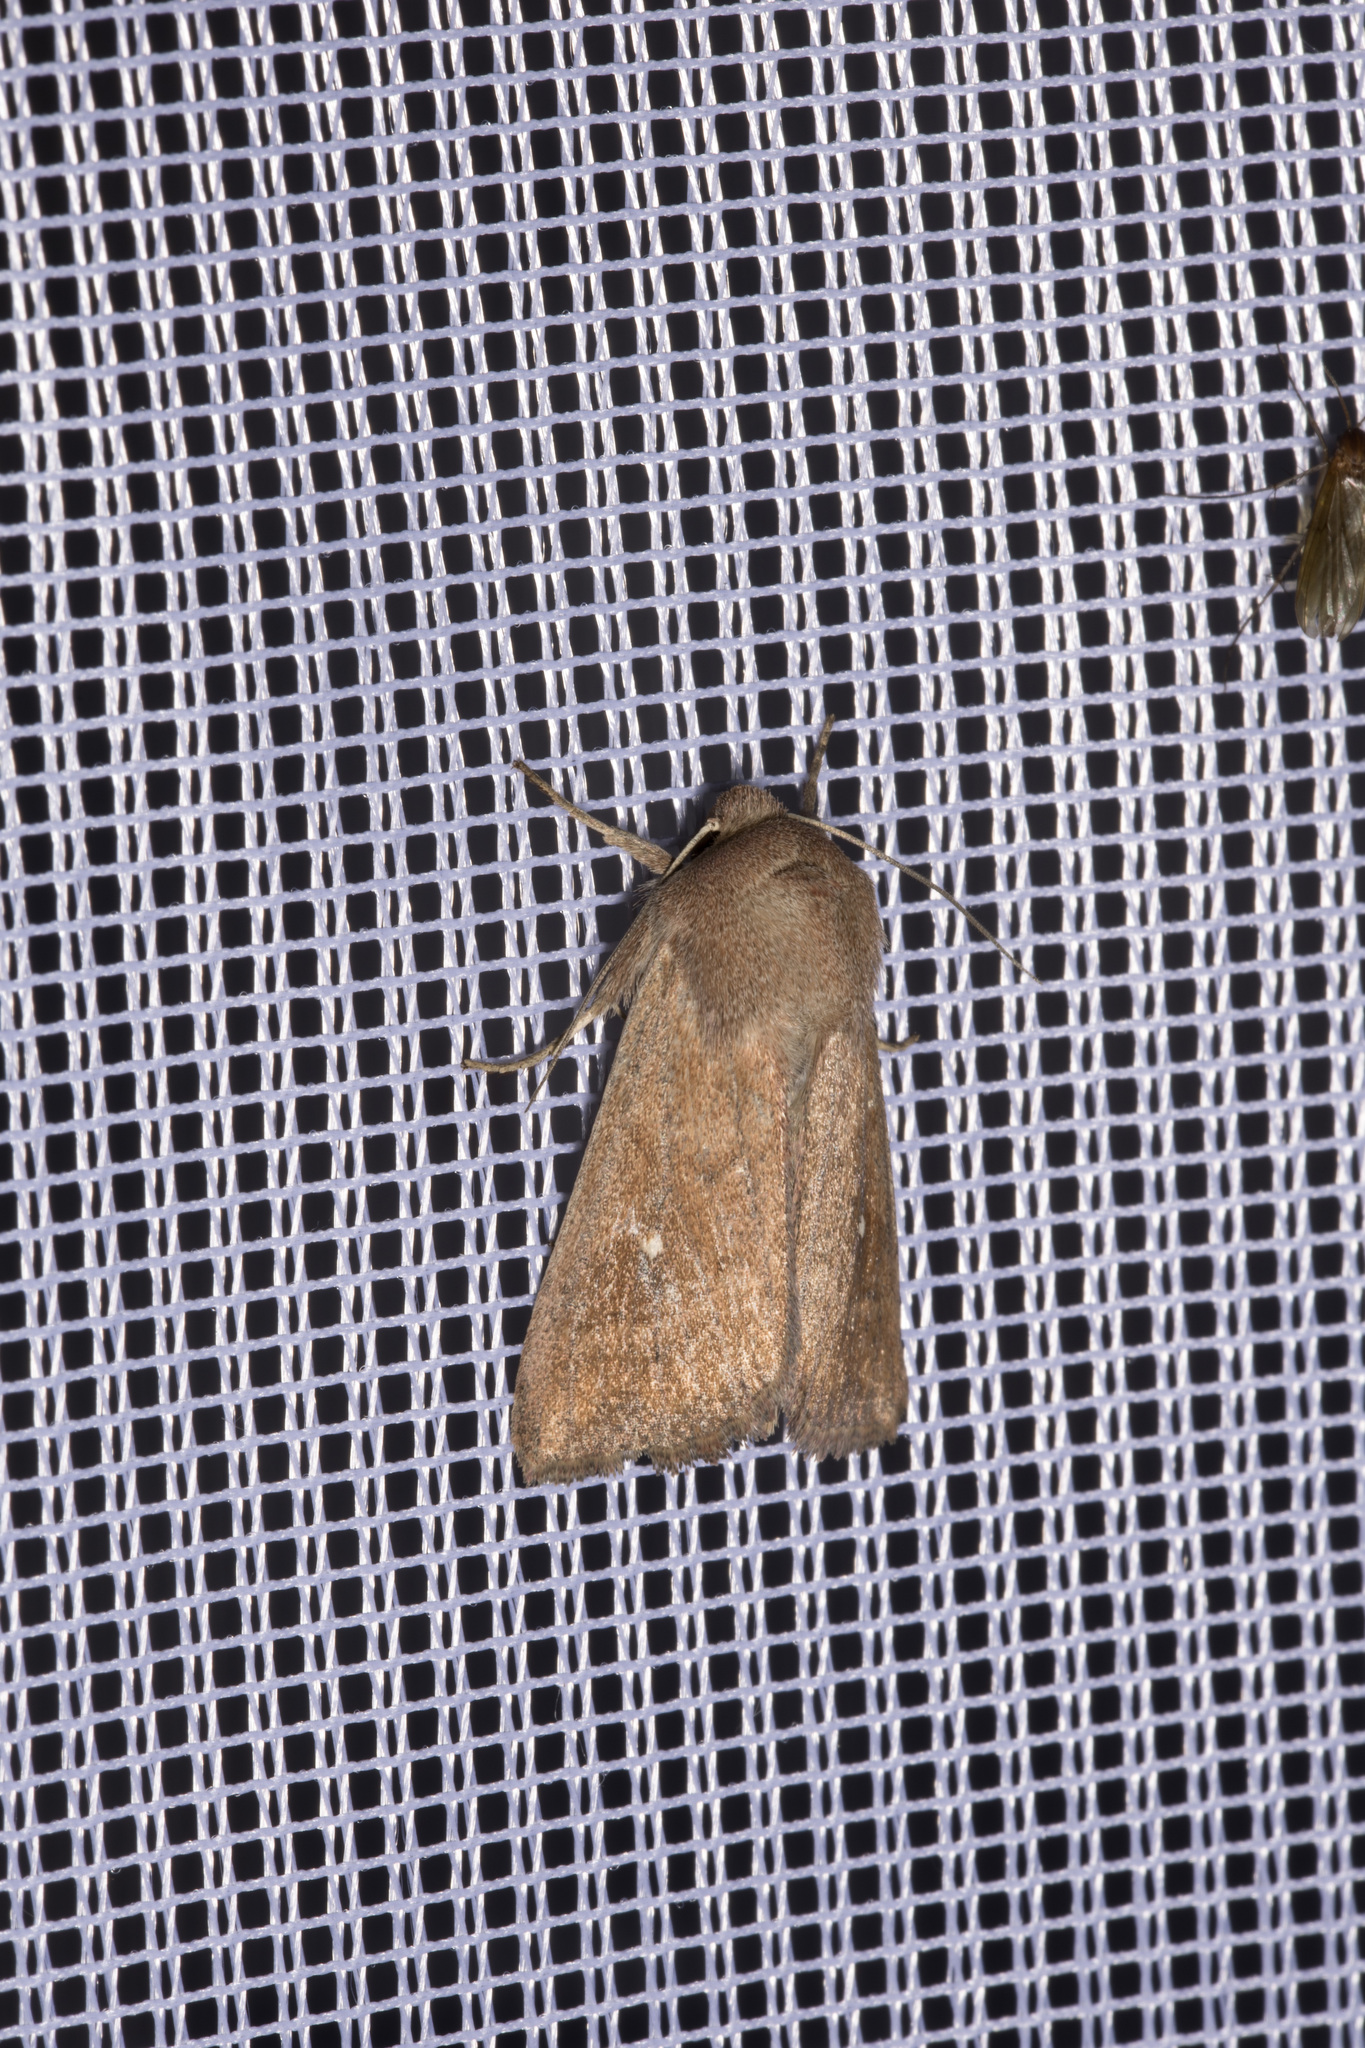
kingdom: Animalia
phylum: Arthropoda
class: Insecta
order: Lepidoptera
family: Noctuidae
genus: Mythimna
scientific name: Mythimna albipuncta
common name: White-point
